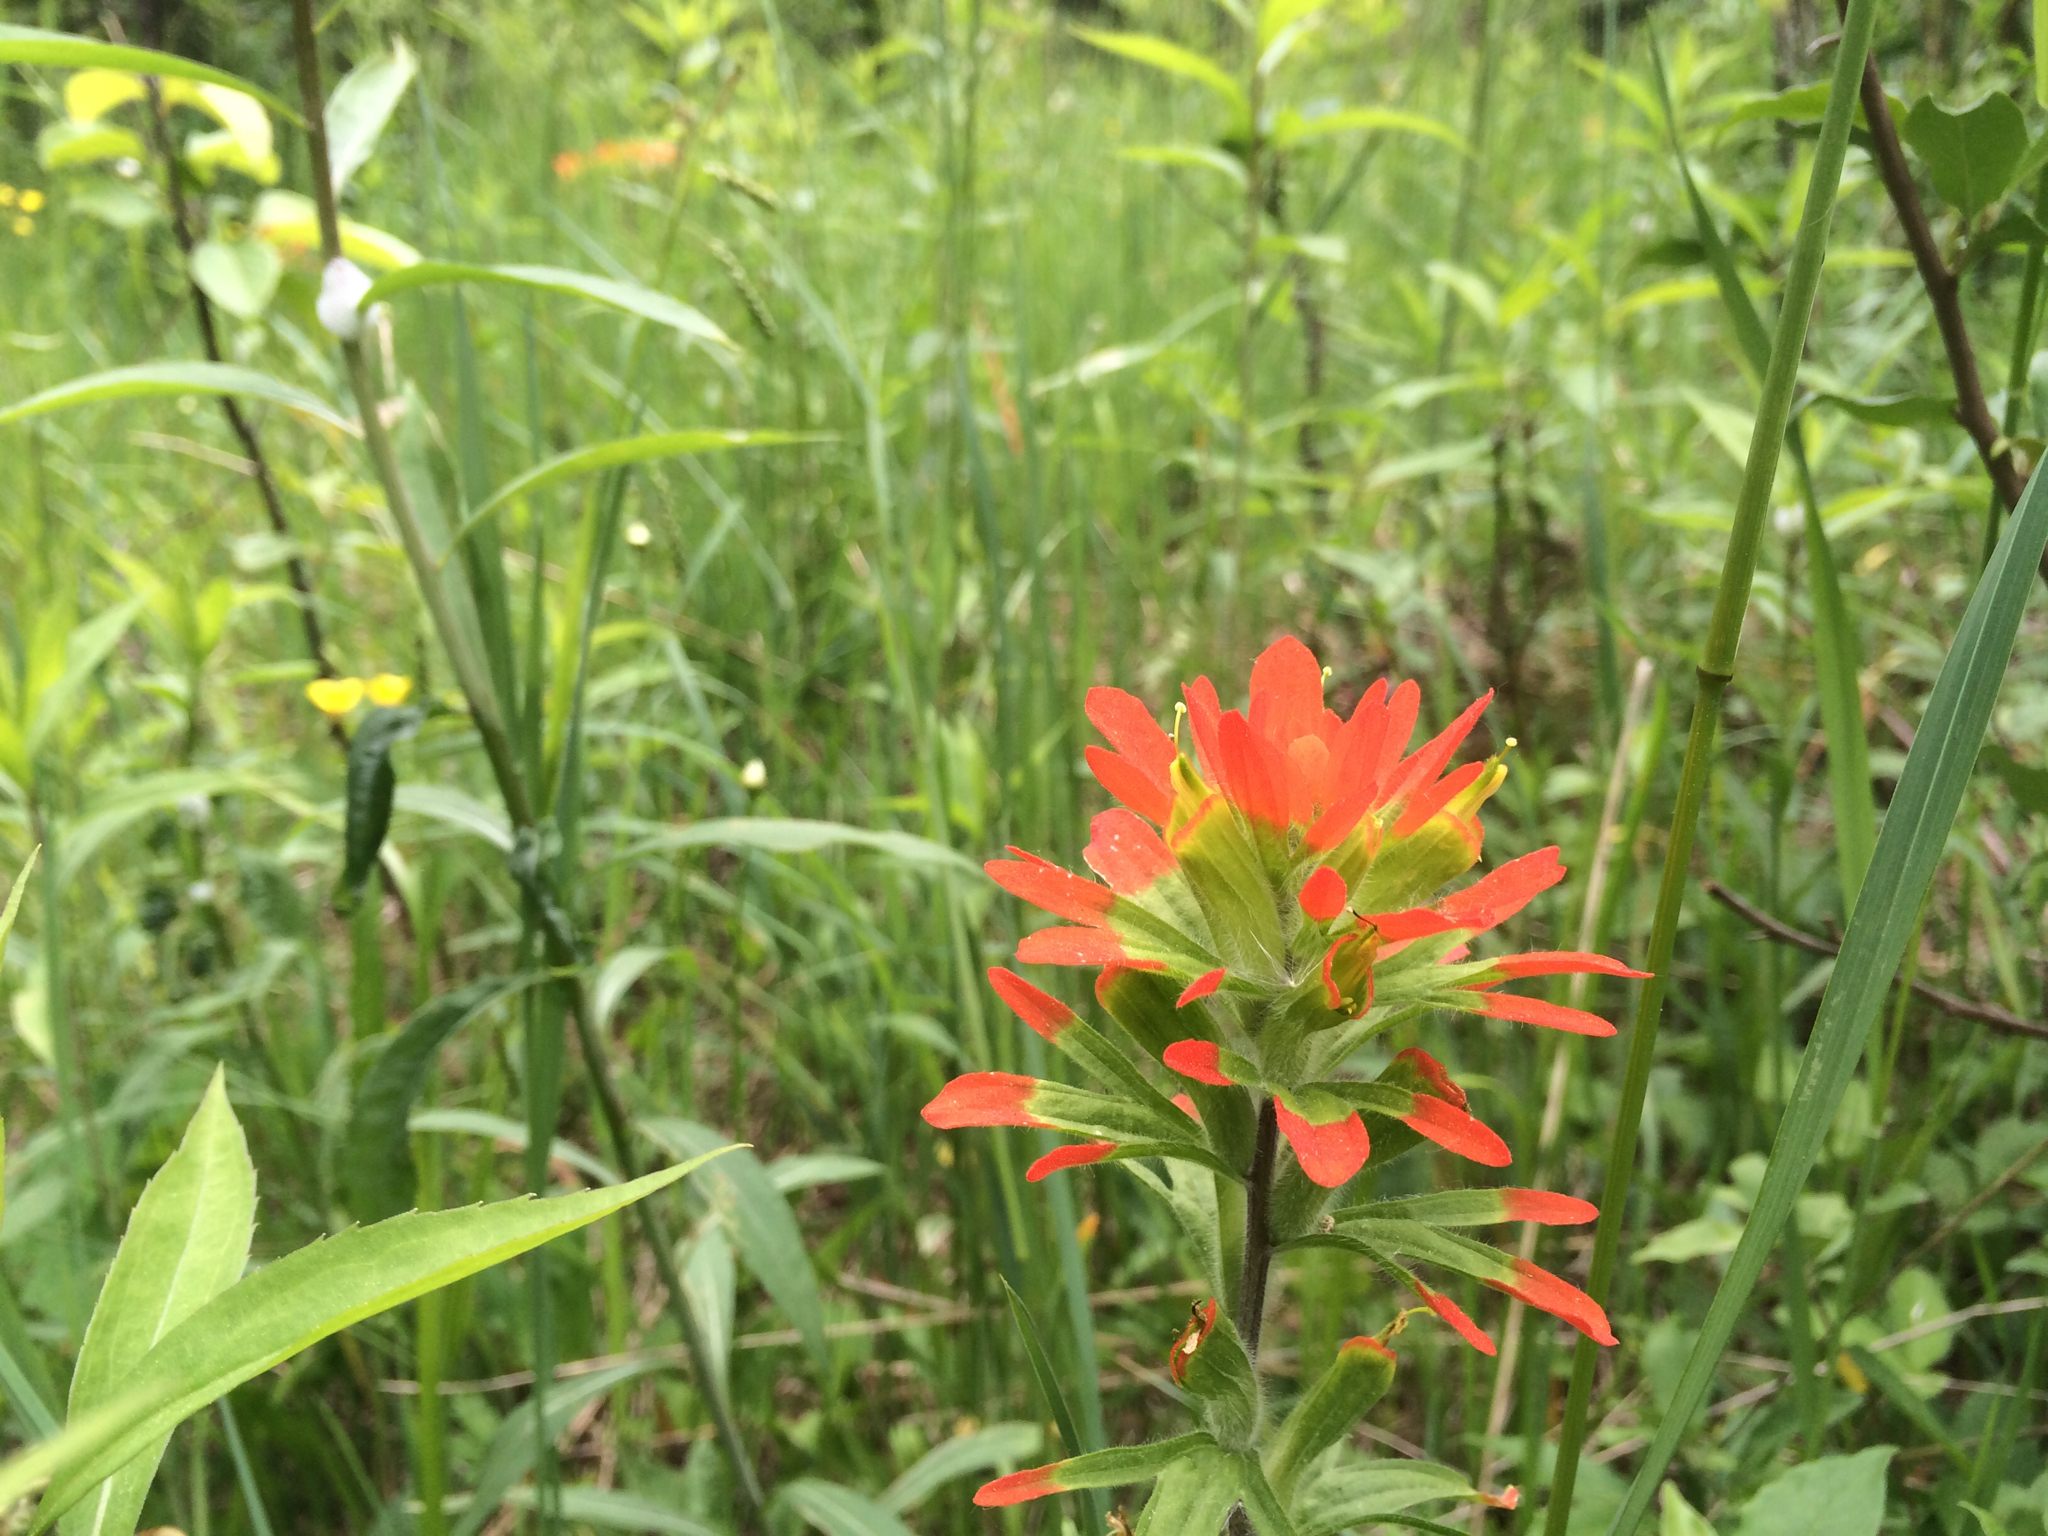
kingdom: Plantae
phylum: Tracheophyta
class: Magnoliopsida
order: Lamiales
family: Orobanchaceae
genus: Castilleja
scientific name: Castilleja coccinea
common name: Scarlet paintbrush
